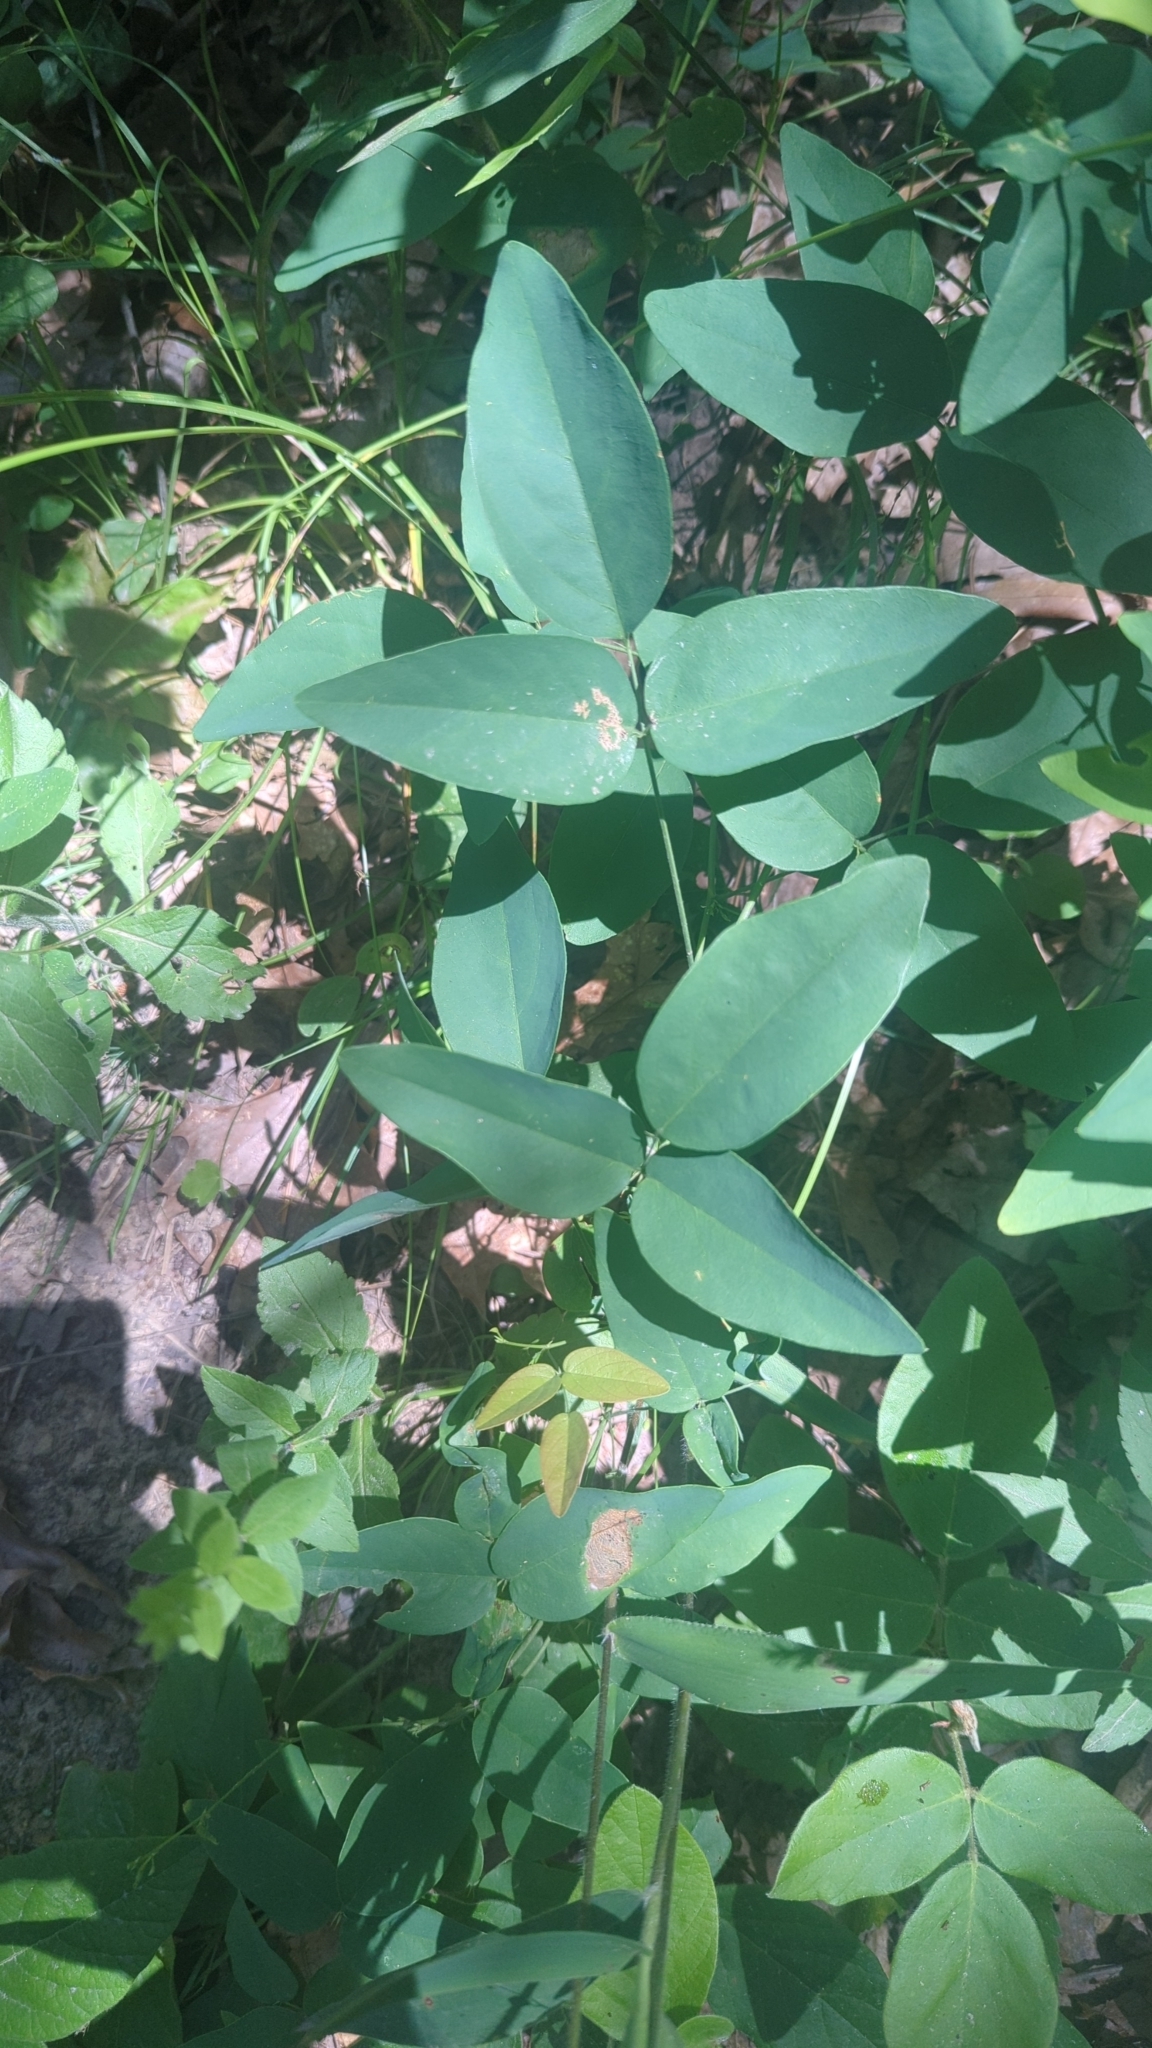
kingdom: Plantae
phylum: Tracheophyta
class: Magnoliopsida
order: Fabales
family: Fabaceae
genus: Clitoria
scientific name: Clitoria mariana
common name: Butterfly-pea
